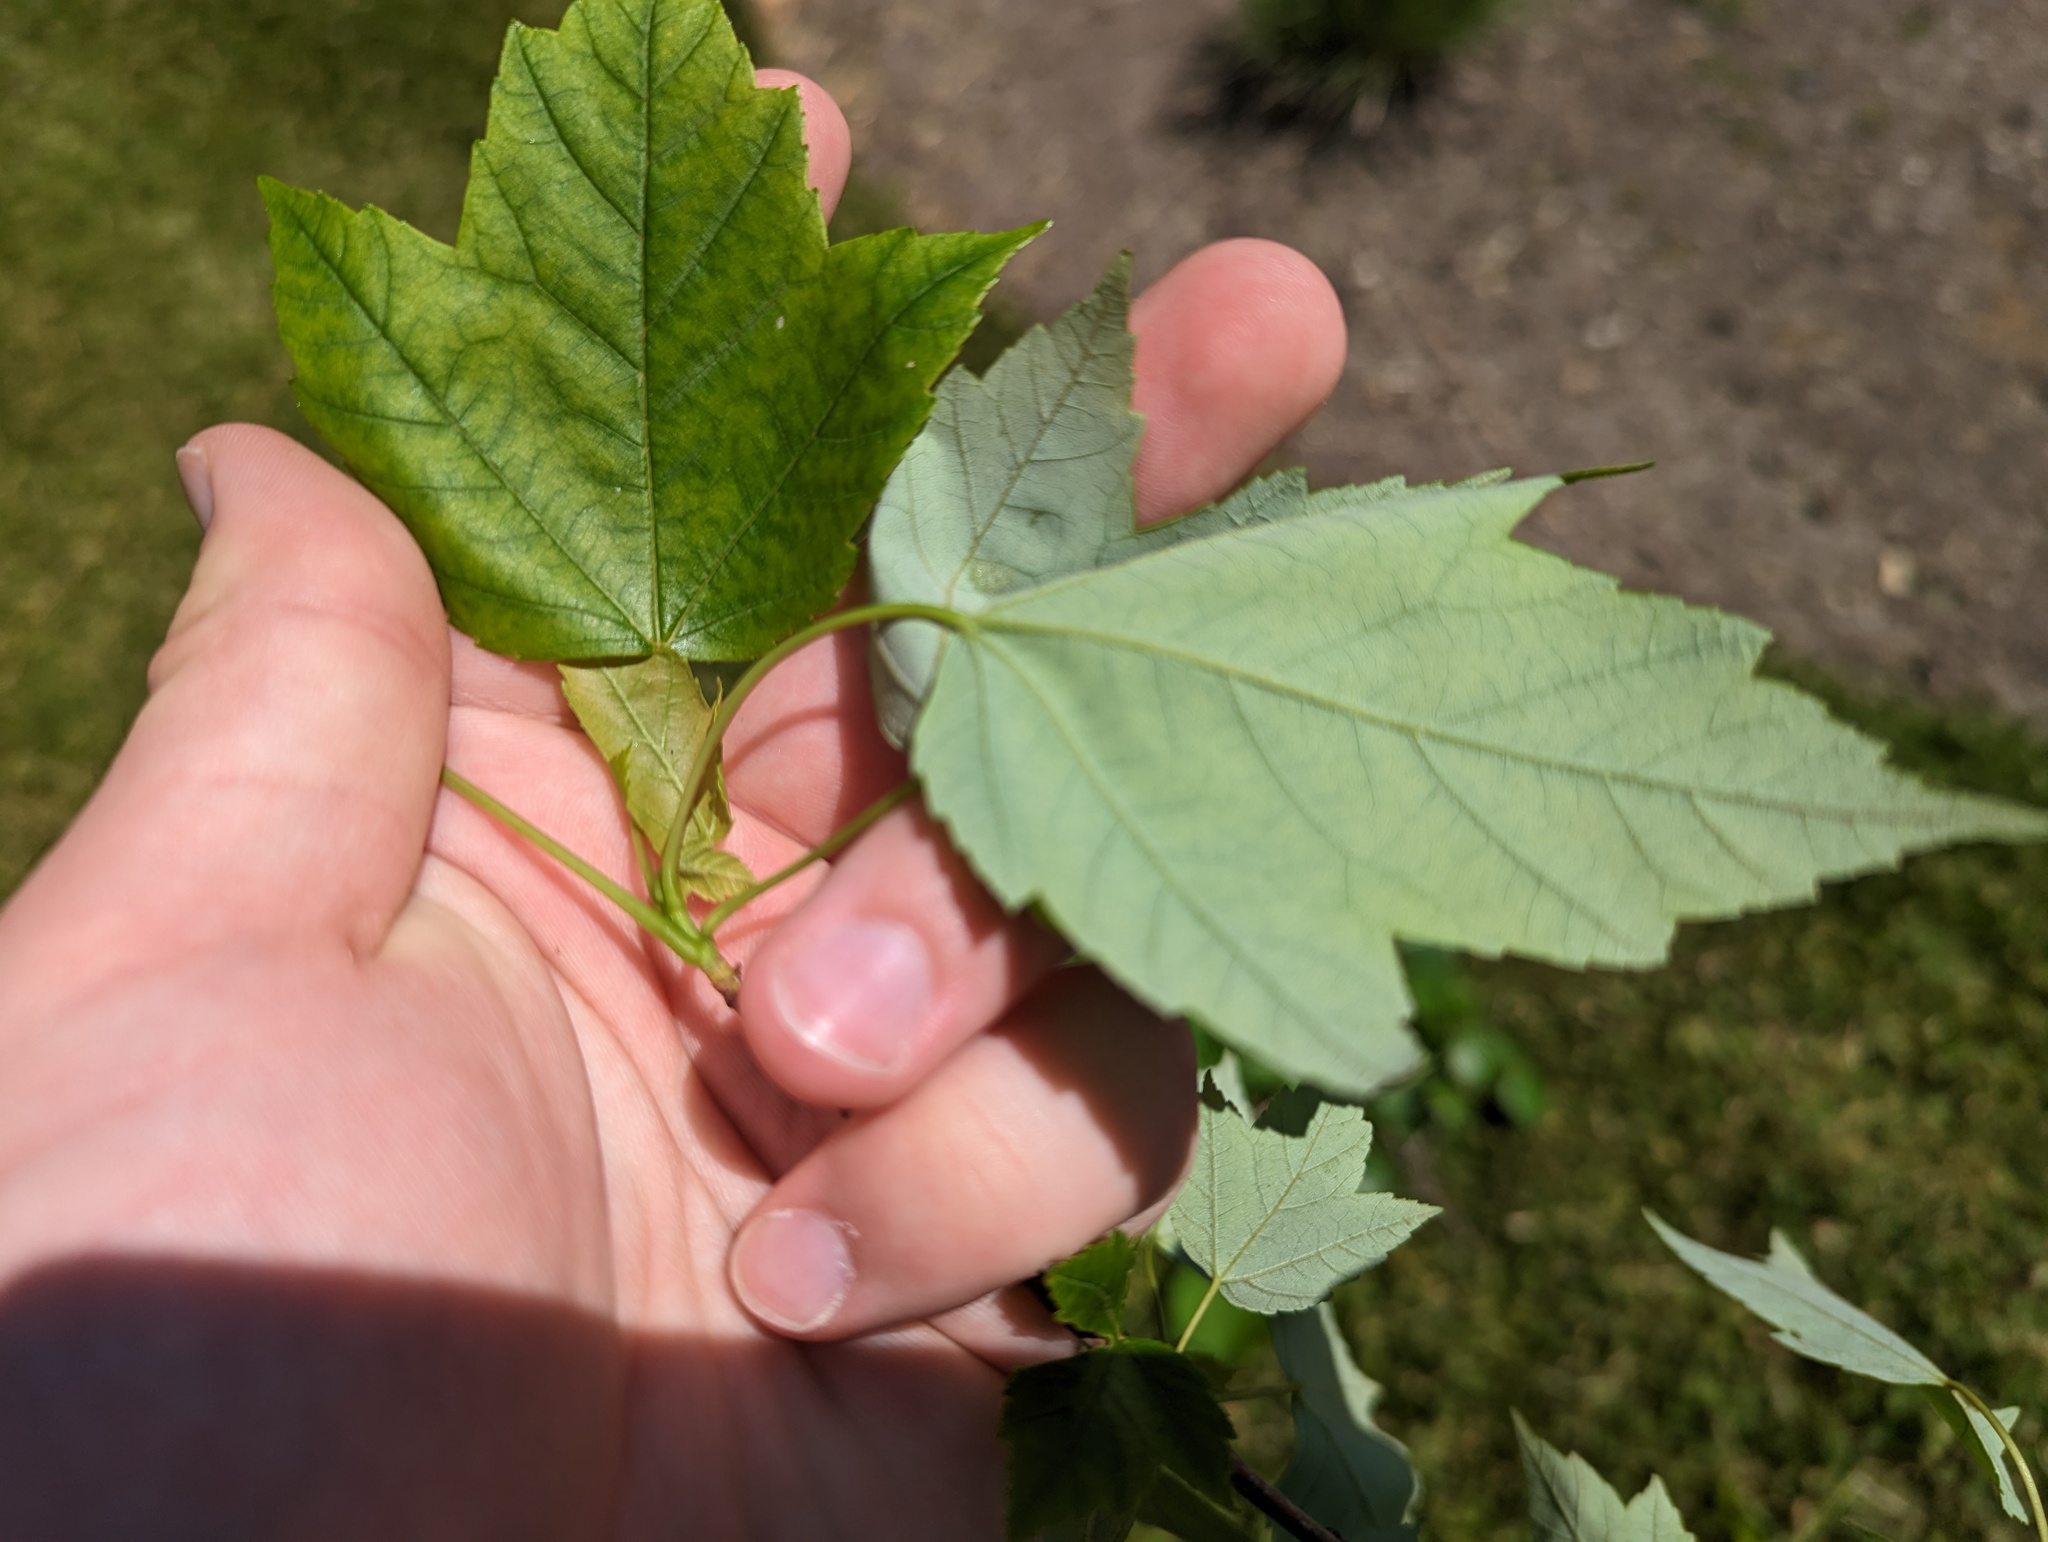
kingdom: Plantae
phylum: Tracheophyta
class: Magnoliopsida
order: Sapindales
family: Sapindaceae
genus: Acer
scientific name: Acer rubrum
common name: Red maple
